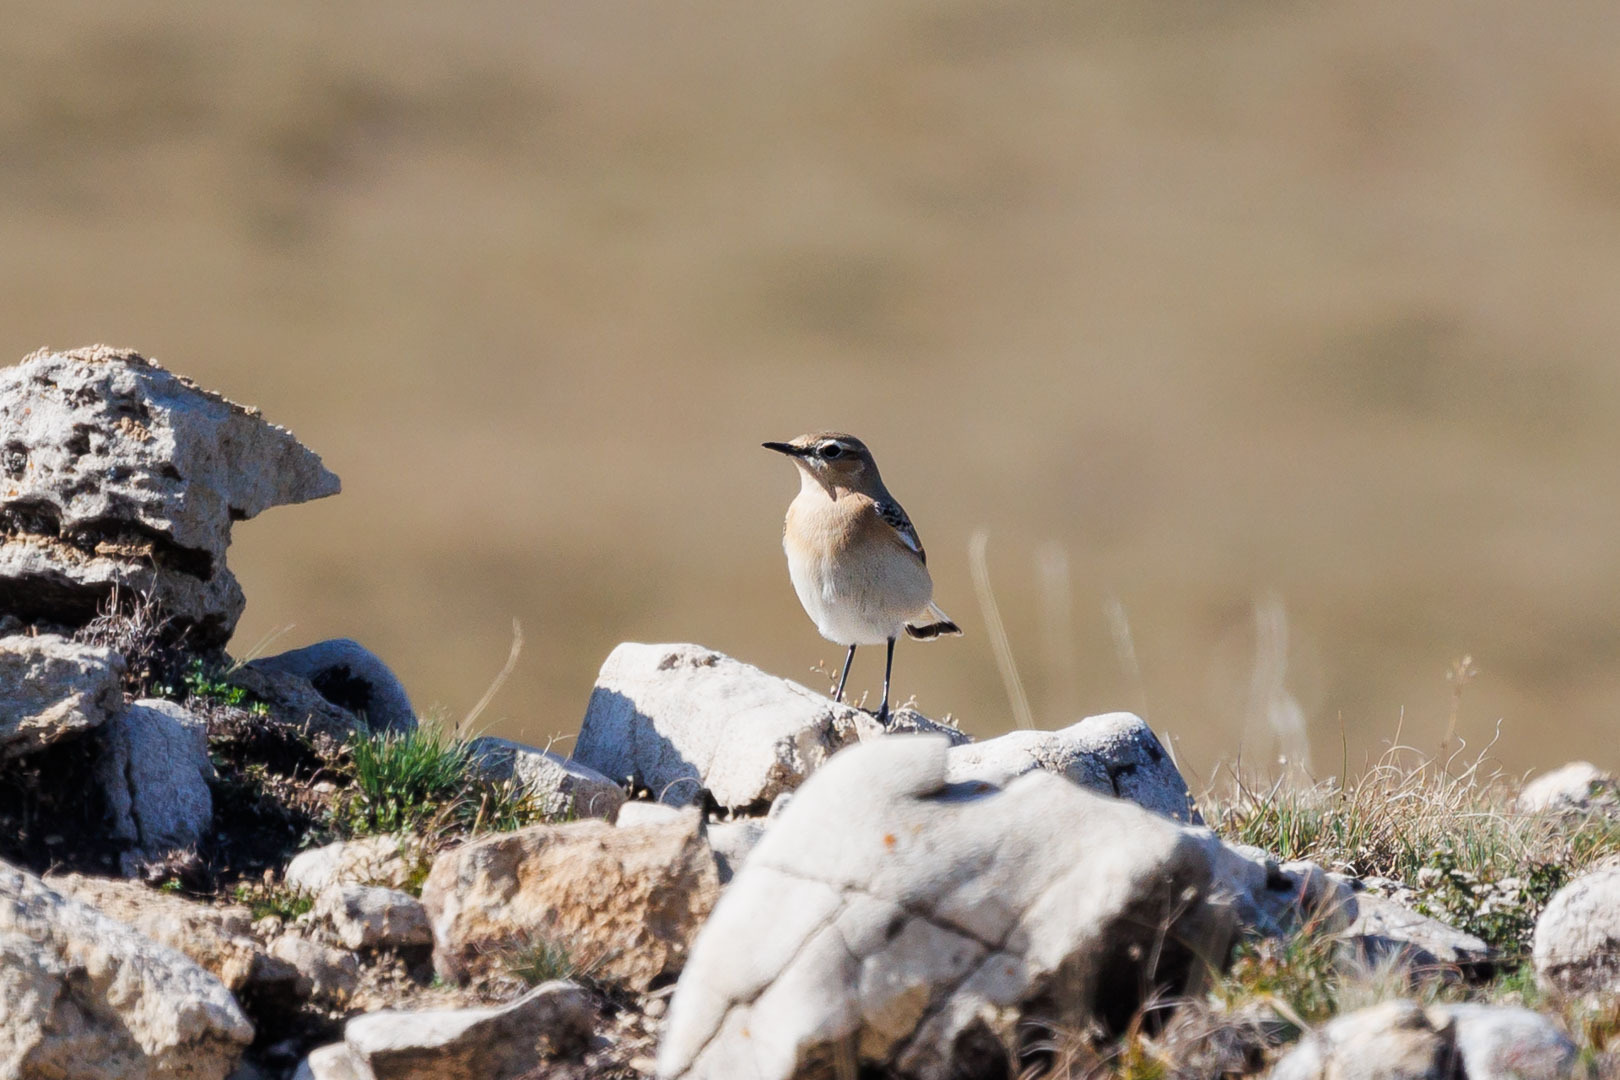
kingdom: Animalia
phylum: Chordata
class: Aves
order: Passeriformes
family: Muscicapidae
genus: Oenanthe
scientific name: Oenanthe oenanthe
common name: Northern wheatear
